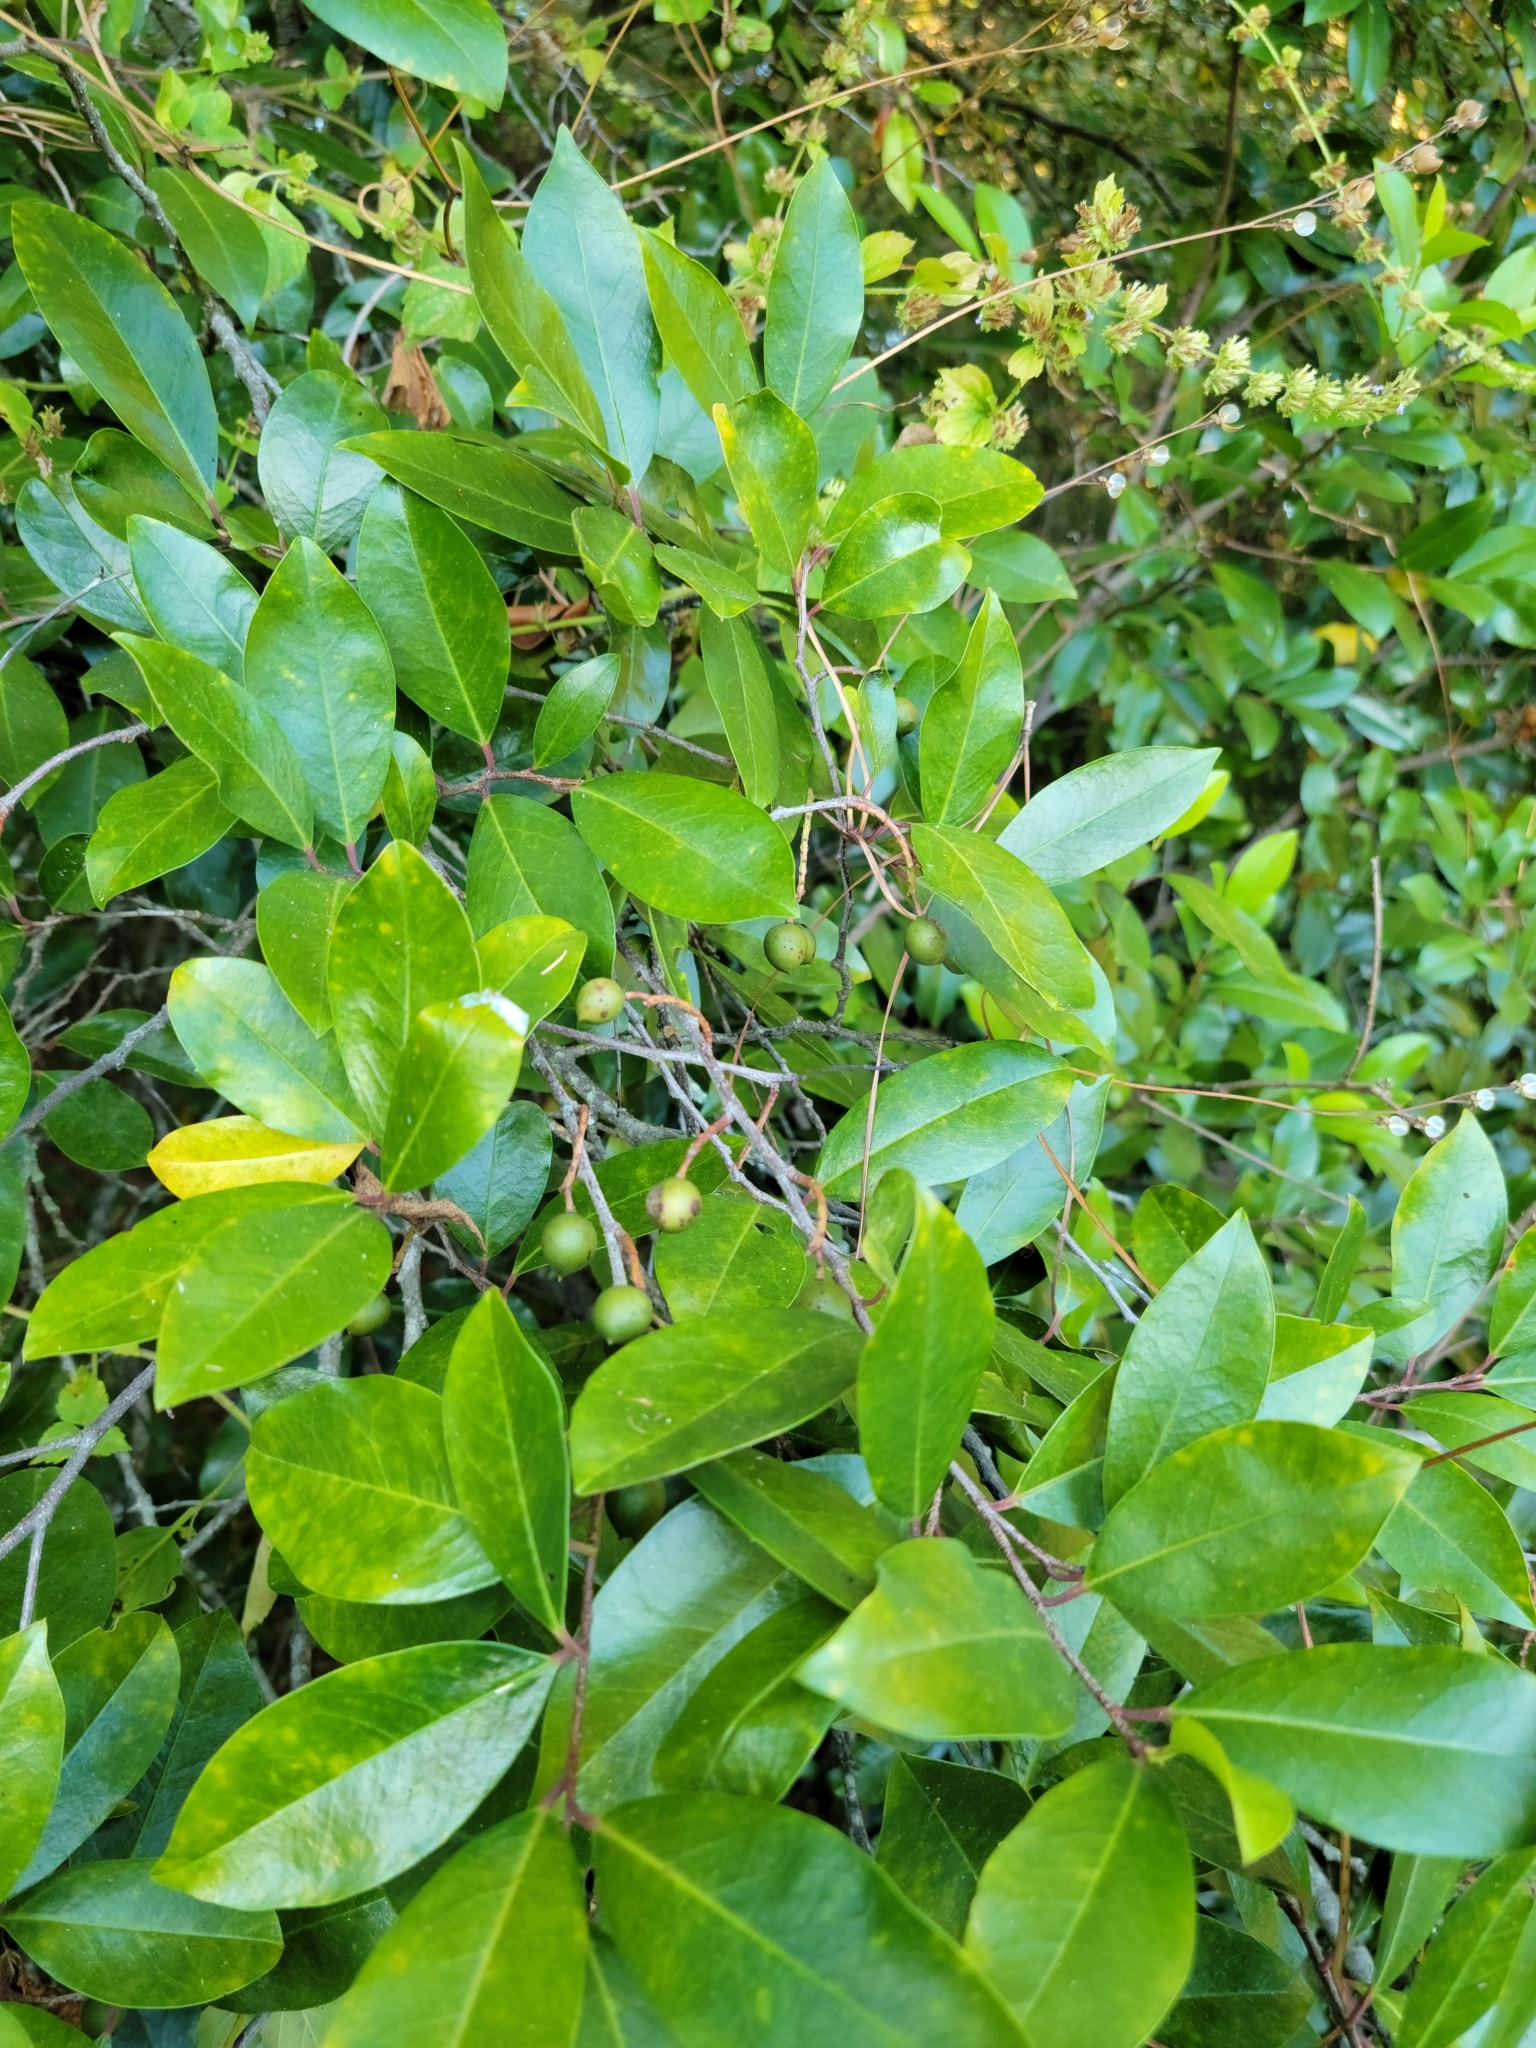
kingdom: Plantae
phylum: Tracheophyta
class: Magnoliopsida
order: Rosales
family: Rosaceae
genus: Prunus
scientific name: Prunus caroliniana
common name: Carolina laurel cherry
